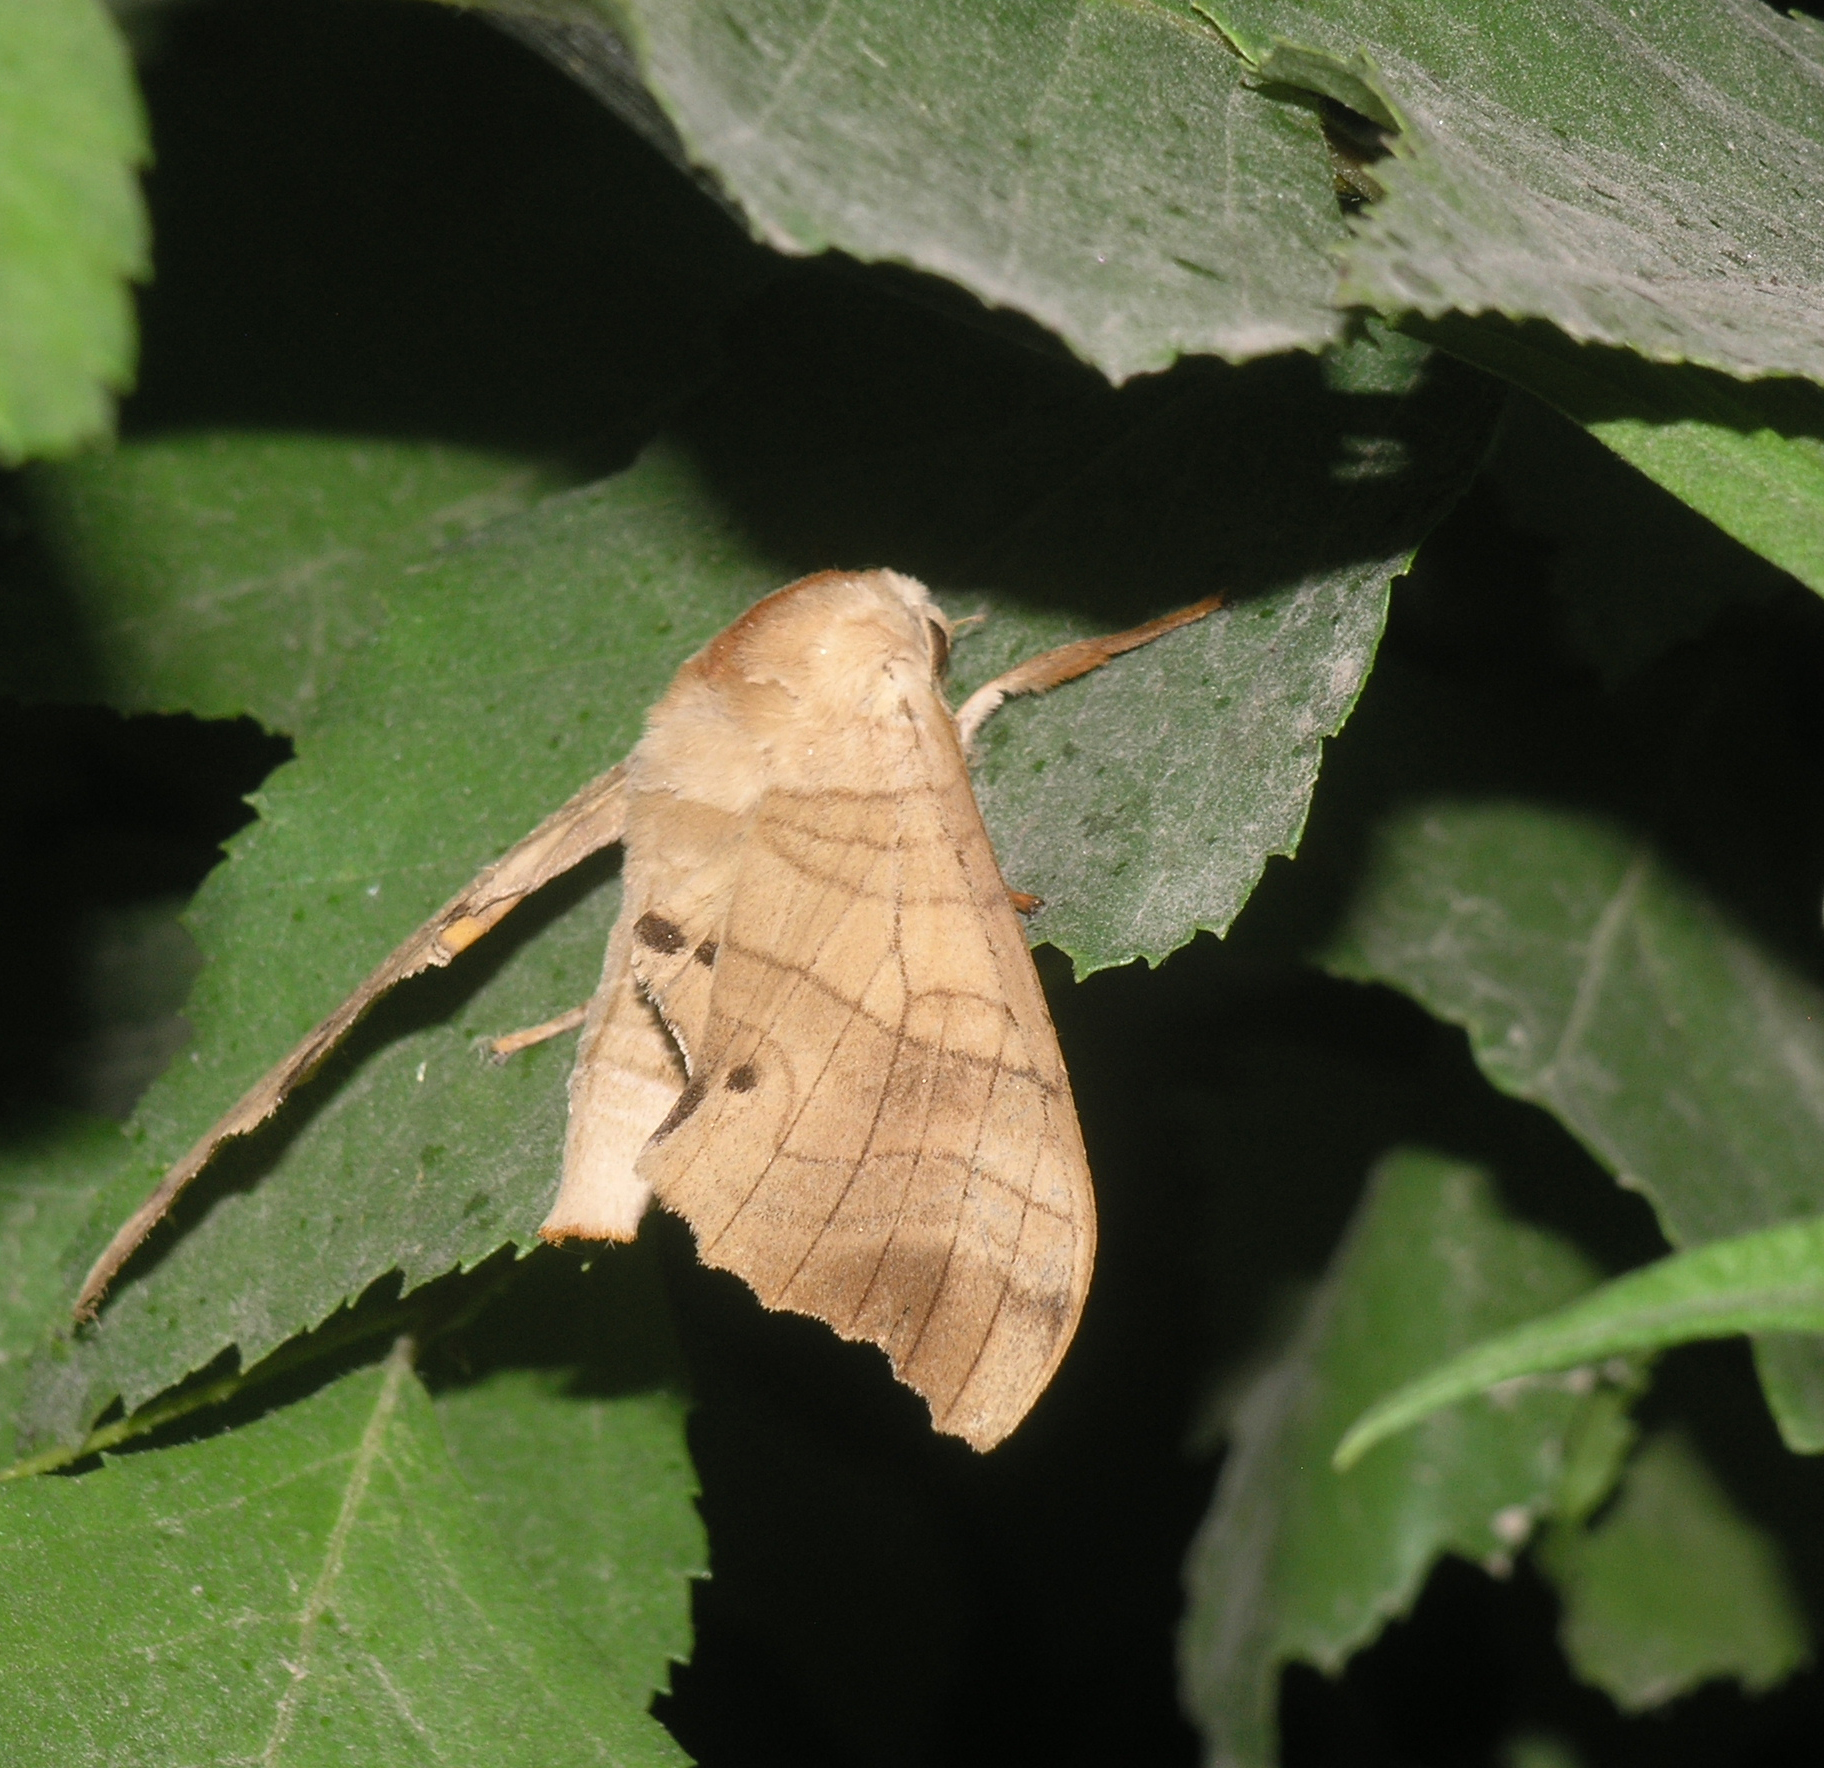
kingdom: Animalia
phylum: Arthropoda
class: Insecta
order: Lepidoptera
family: Sphingidae
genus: Marumba
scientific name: Marumba jankowskii
